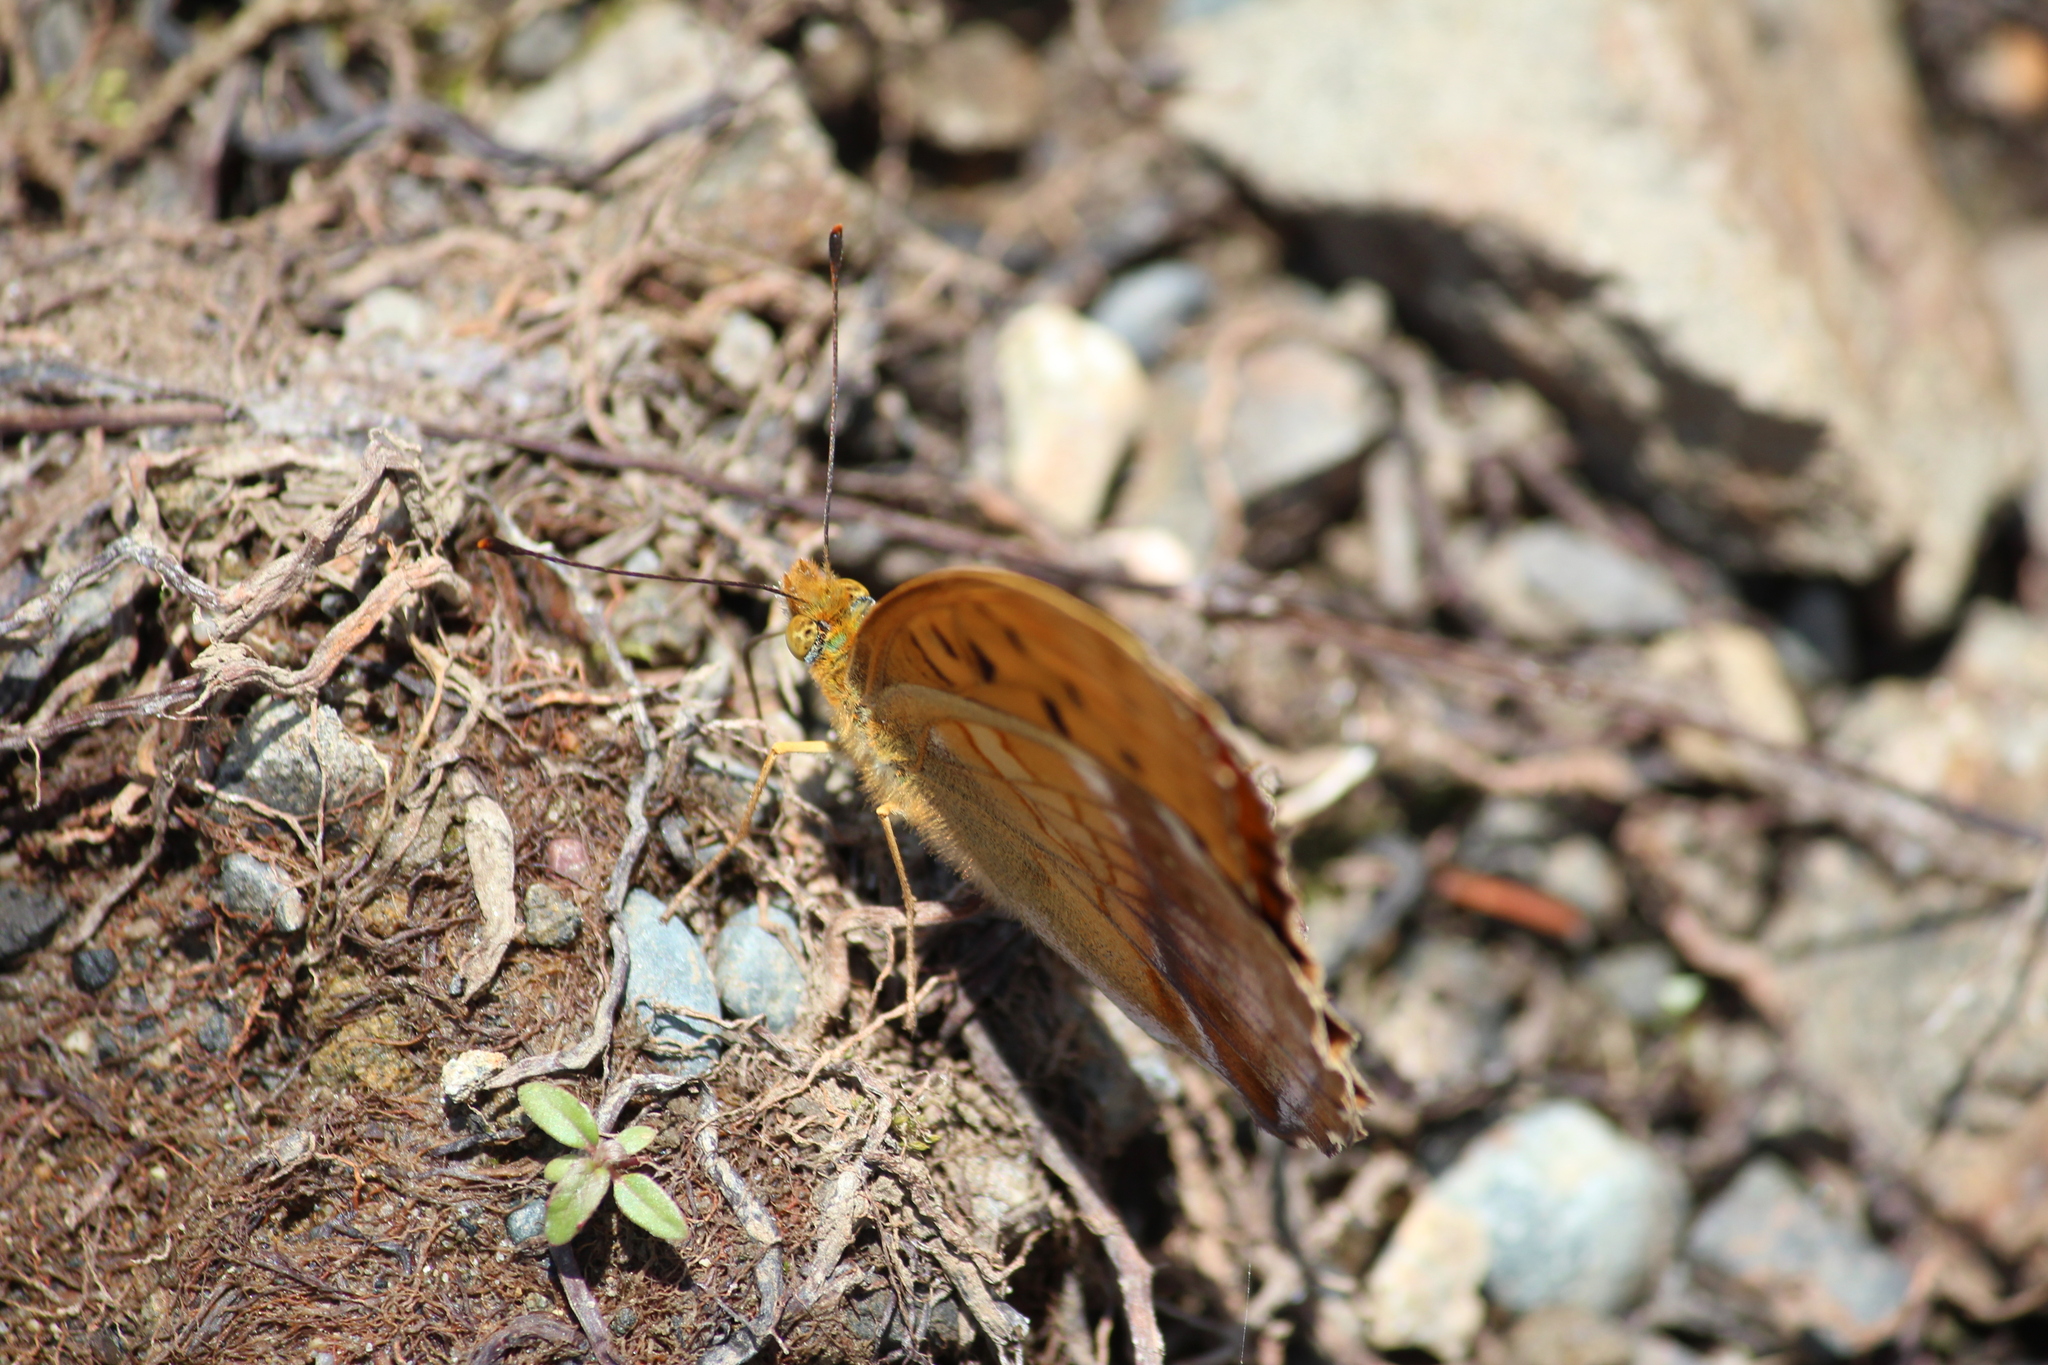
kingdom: Animalia
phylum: Arthropoda
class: Insecta
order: Lepidoptera
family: Nymphalidae
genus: Damora
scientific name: Damora sagana
